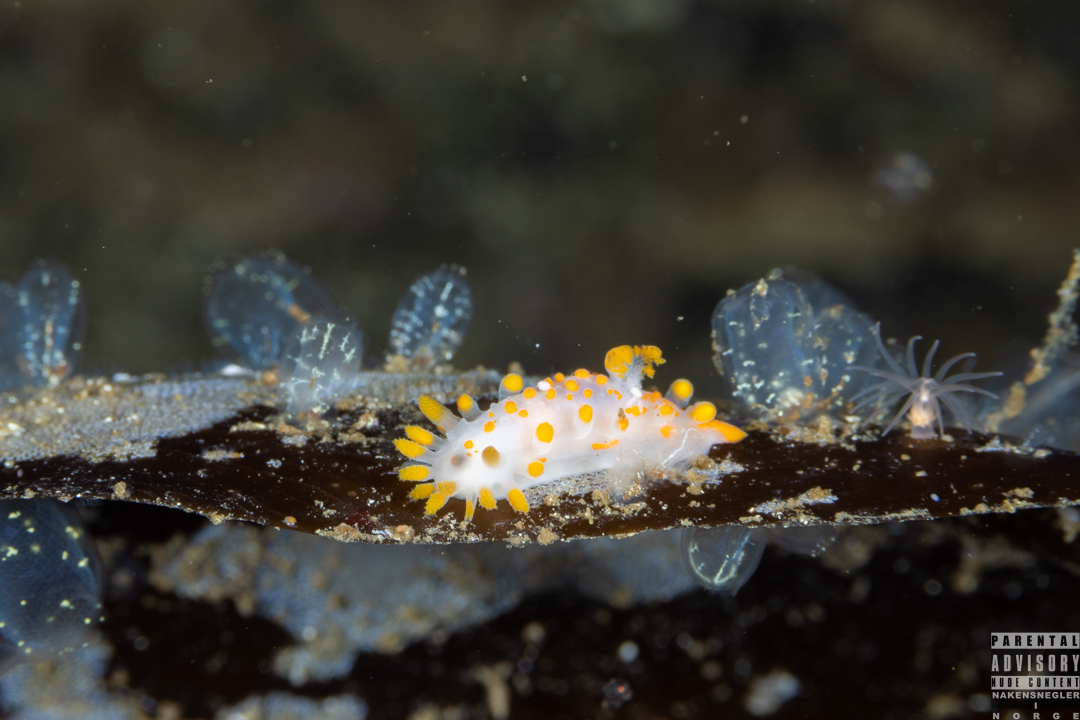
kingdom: Animalia
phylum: Mollusca
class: Gastropoda
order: Nudibranchia
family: Polyceridae
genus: Limacia
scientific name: Limacia clavigera
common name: Orange-clubbed sea slug
